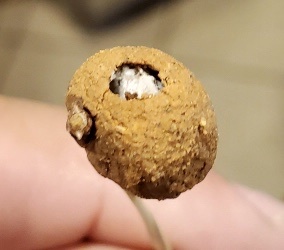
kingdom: Animalia
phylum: Arthropoda
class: Insecta
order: Hymenoptera
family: Vespidae
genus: Eumenes
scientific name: Eumenes
